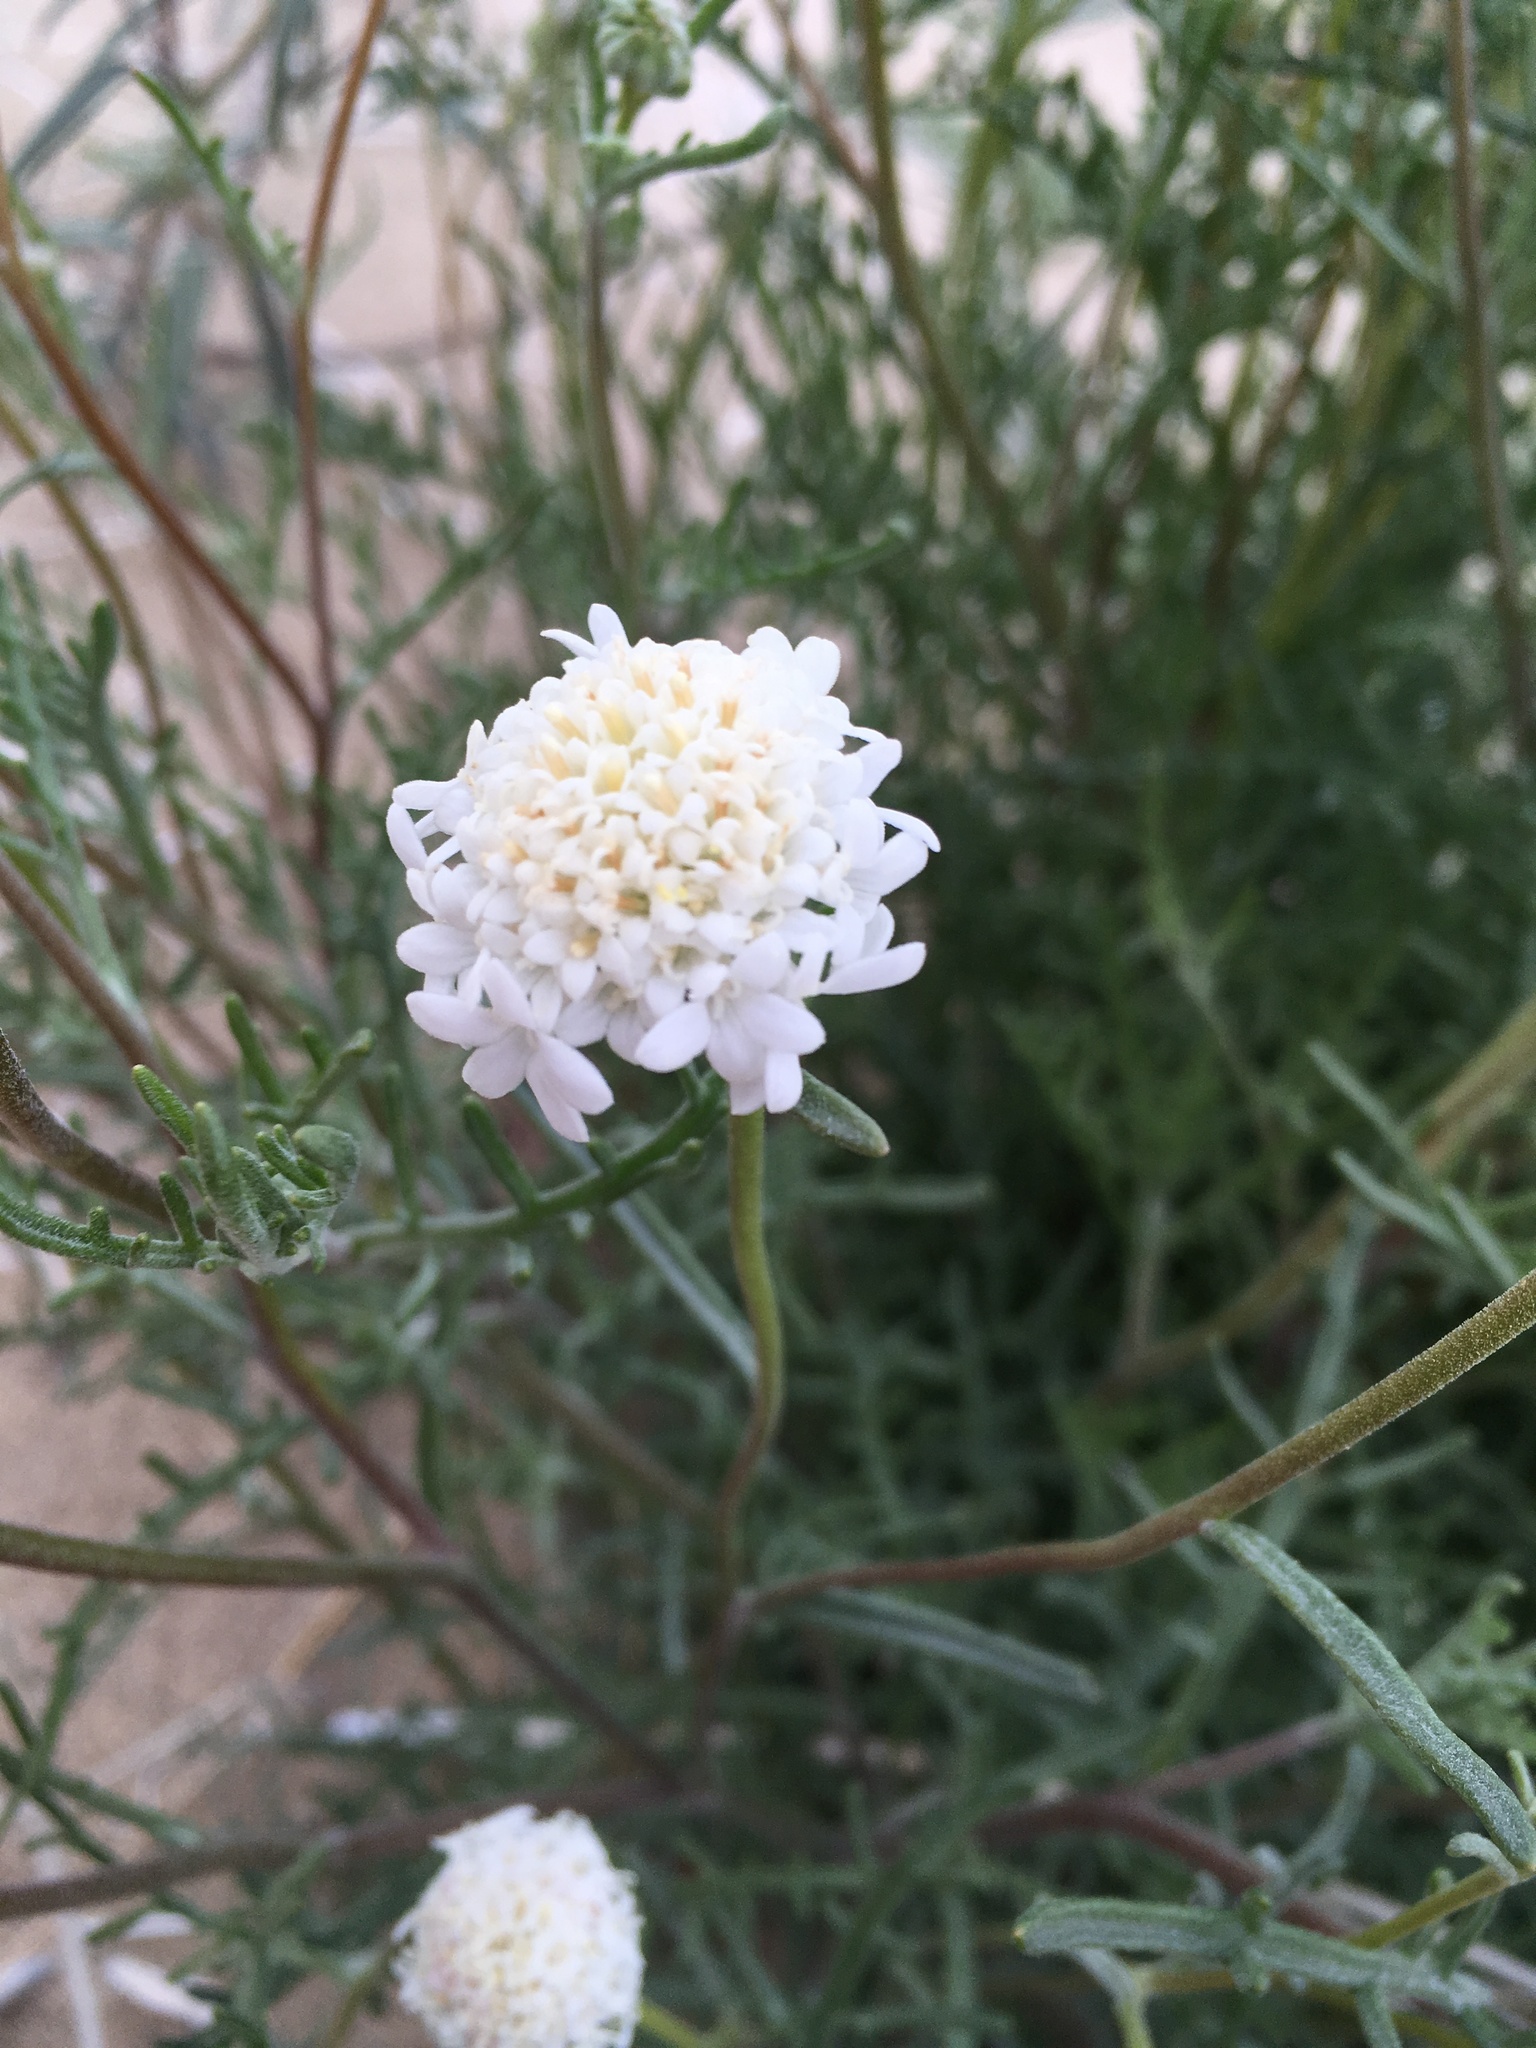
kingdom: Plantae
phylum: Tracheophyta
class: Magnoliopsida
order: Asterales
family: Asteraceae
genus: Chaenactis
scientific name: Chaenactis fremontii
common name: Fremont pincushion
